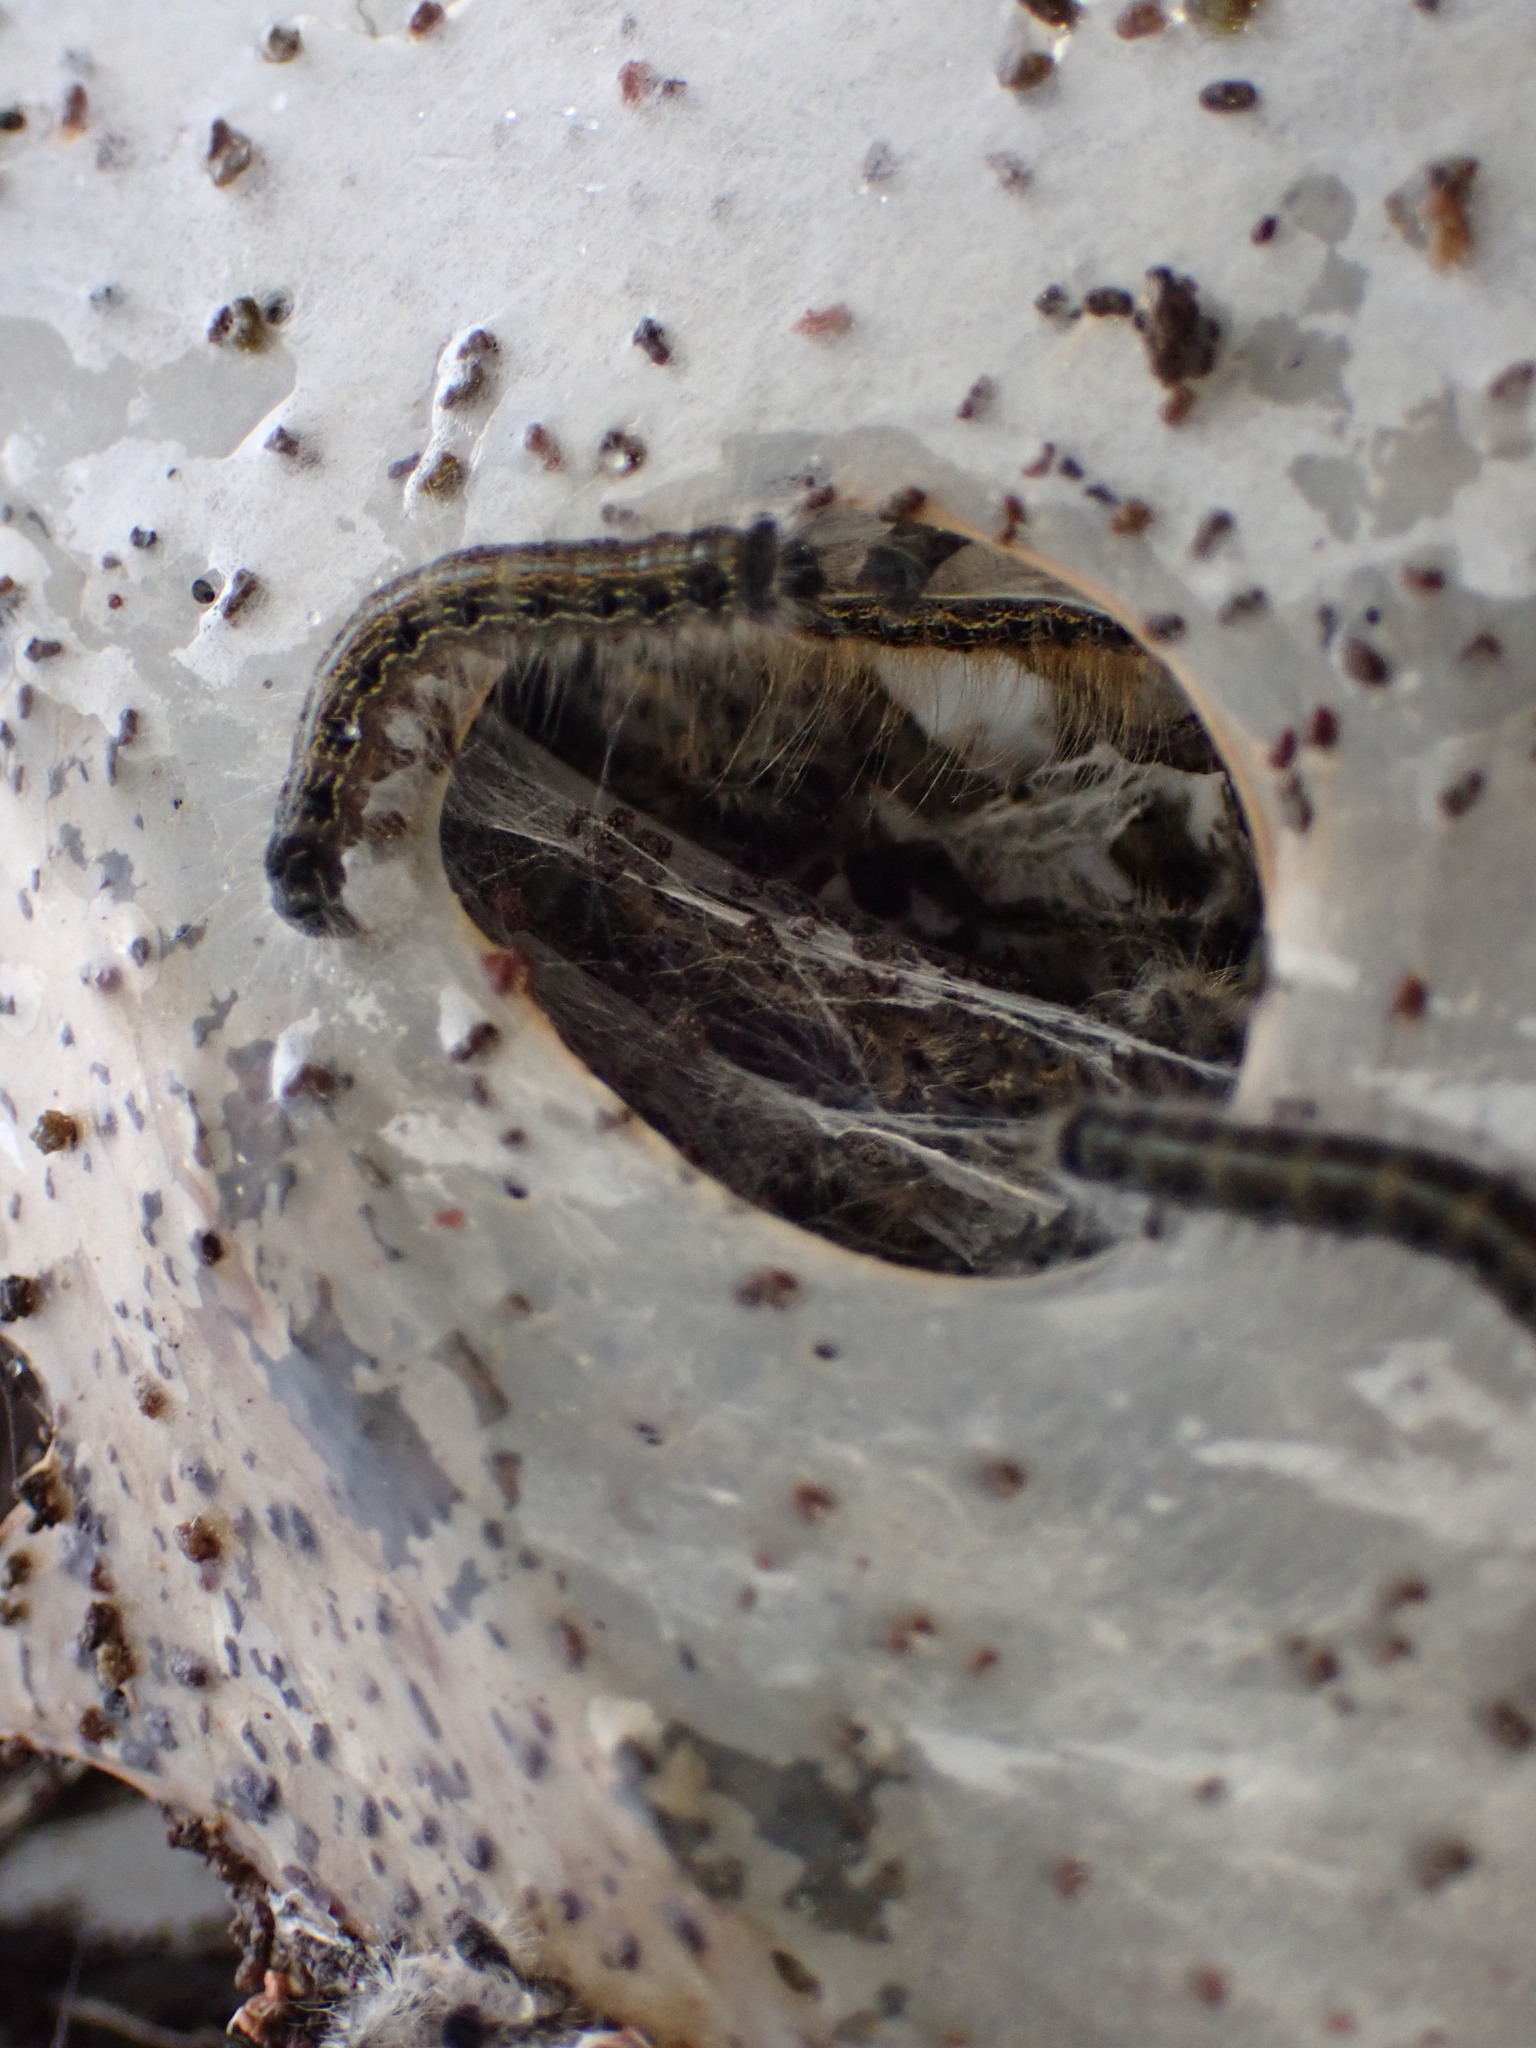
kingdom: Animalia
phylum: Arthropoda
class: Insecta
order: Lepidoptera
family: Lasiocampidae
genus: Malacosoma
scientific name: Malacosoma americana
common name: Eastern tent caterpillar moth
